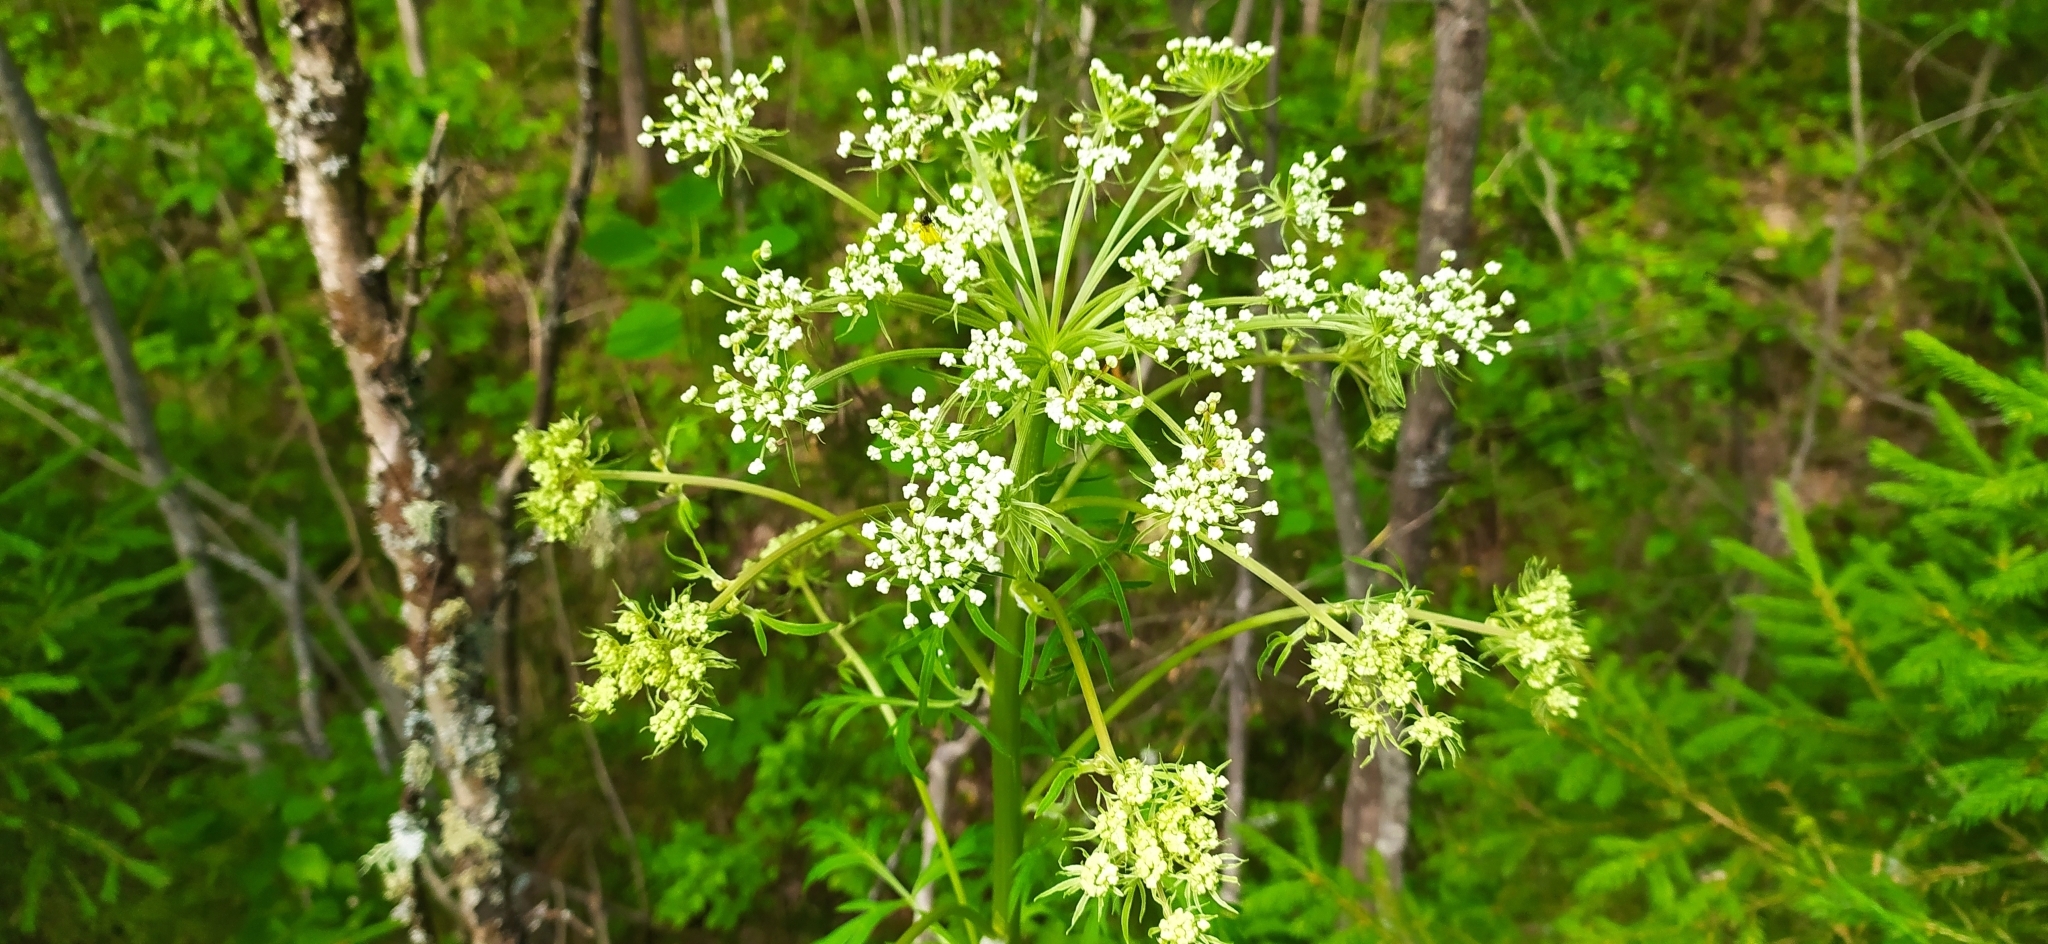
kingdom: Plantae
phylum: Tracheophyta
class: Magnoliopsida
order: Apiales
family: Apiaceae
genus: Pleurospermum
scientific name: Pleurospermum uralense
